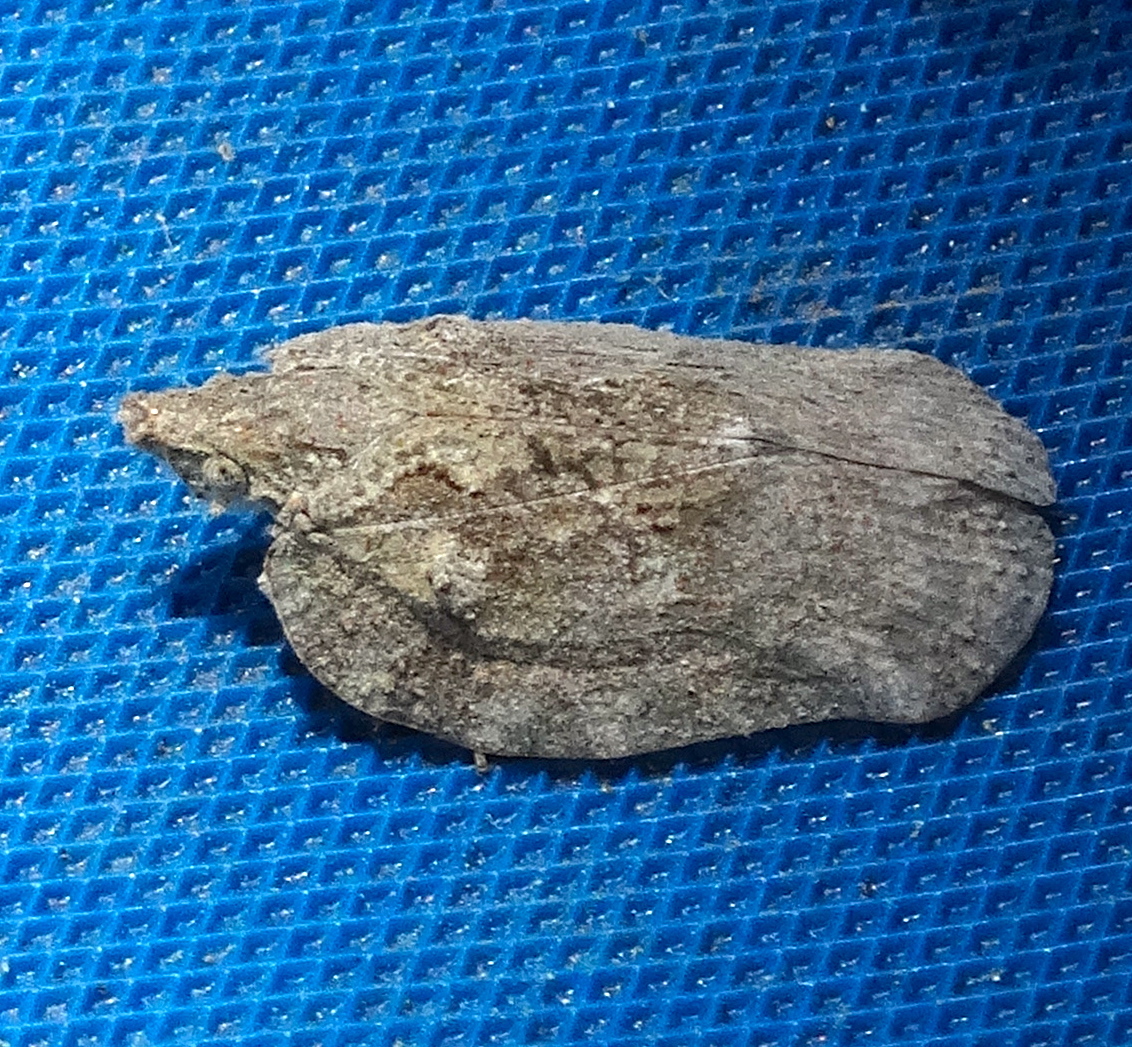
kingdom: Animalia
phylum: Arthropoda
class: Insecta
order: Hemiptera
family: Flatidae
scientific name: Flatidae
